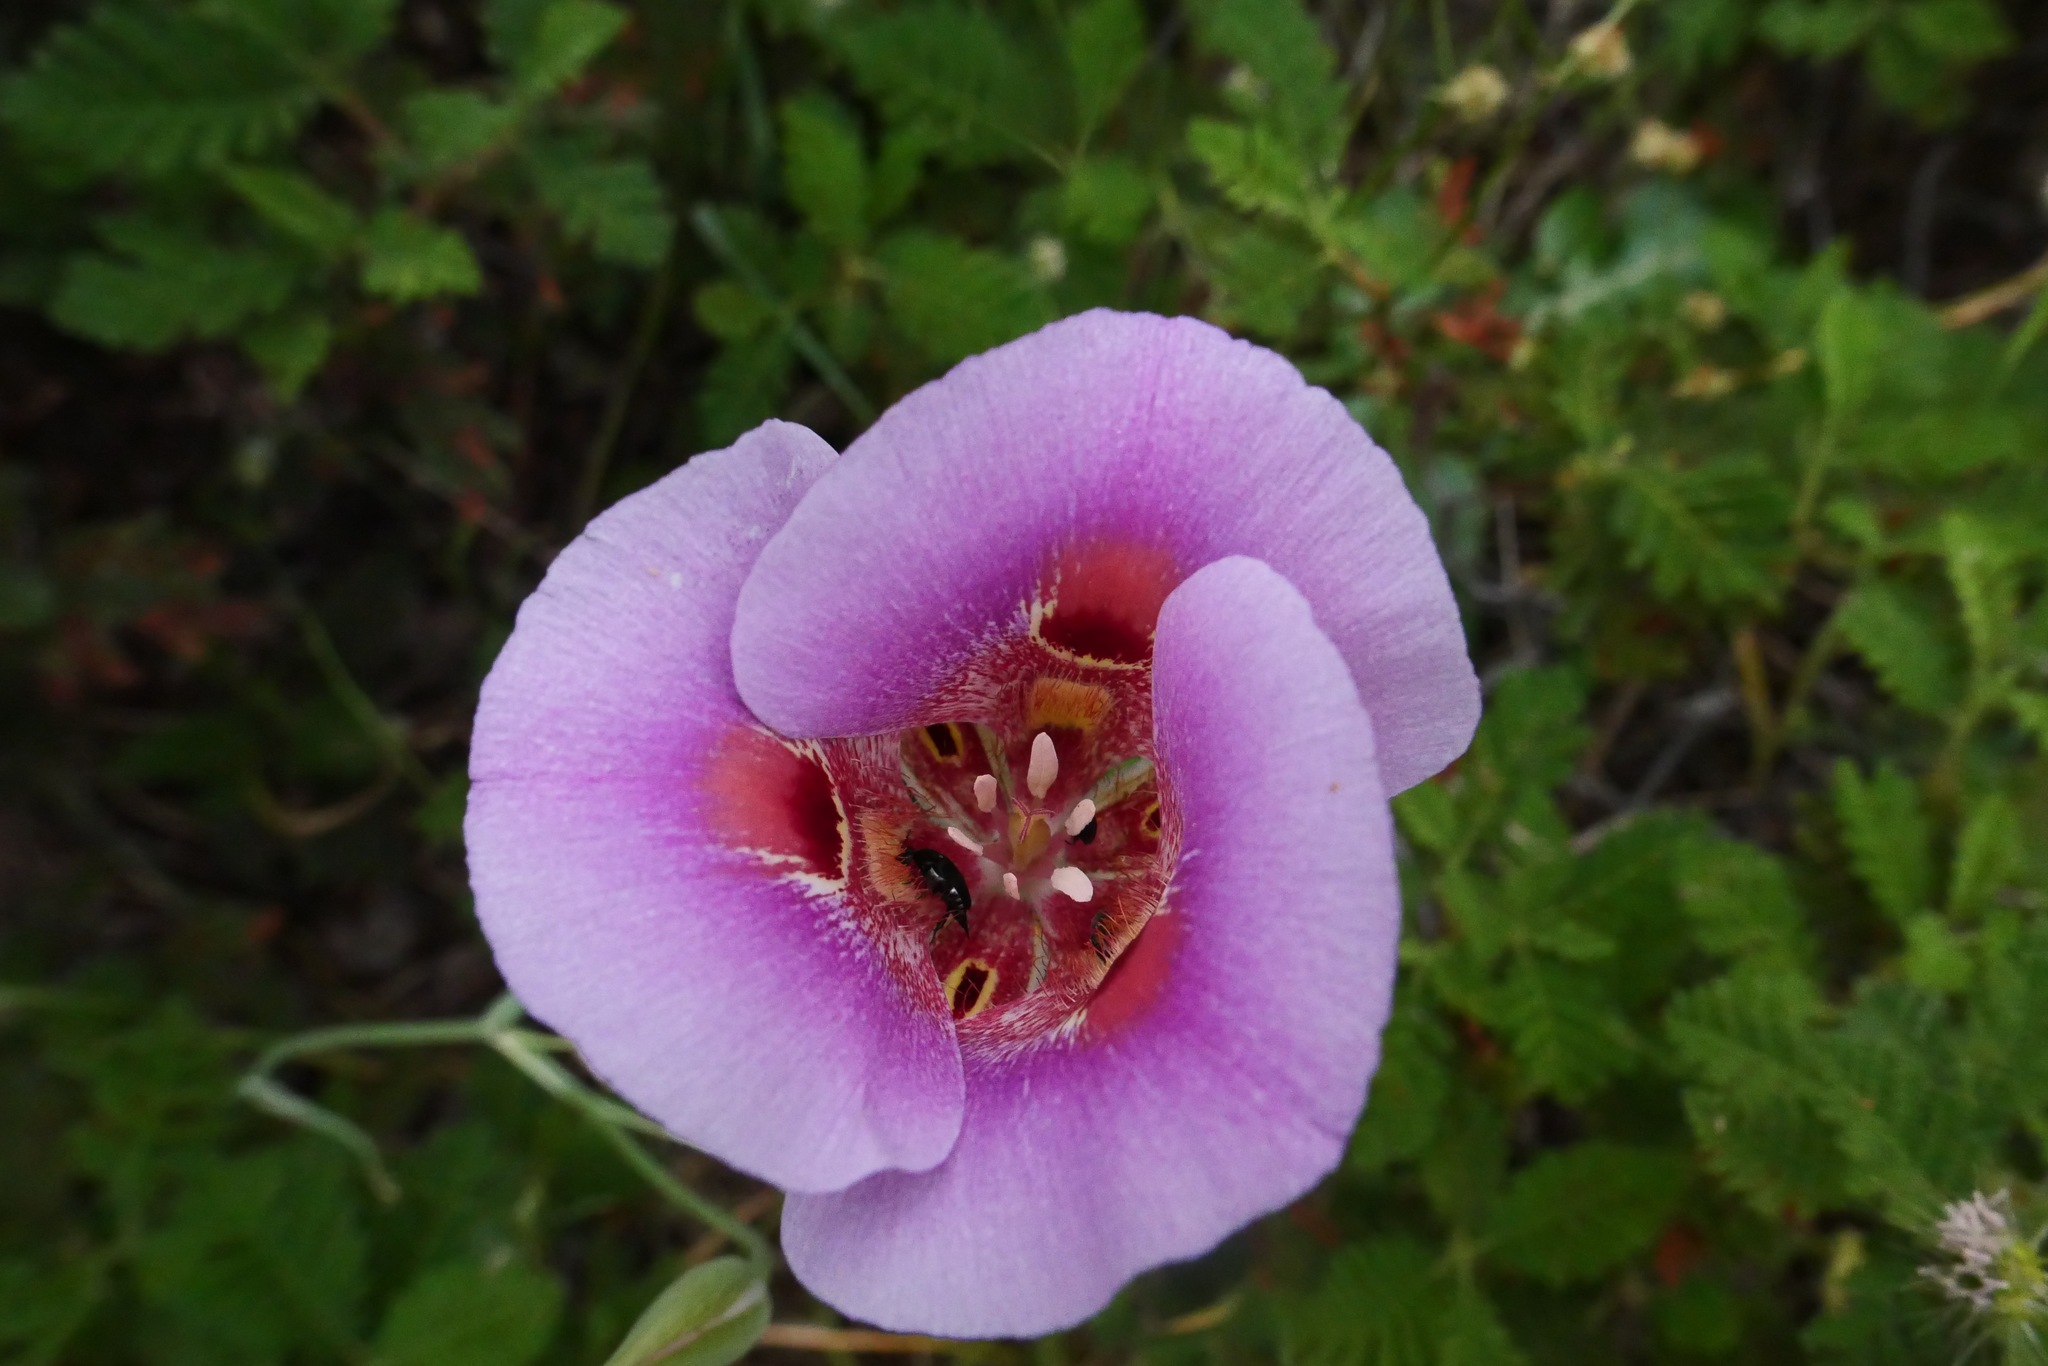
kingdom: Plantae
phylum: Tracheophyta
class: Liliopsida
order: Liliales
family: Liliaceae
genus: Calochortus
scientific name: Calochortus venustus
